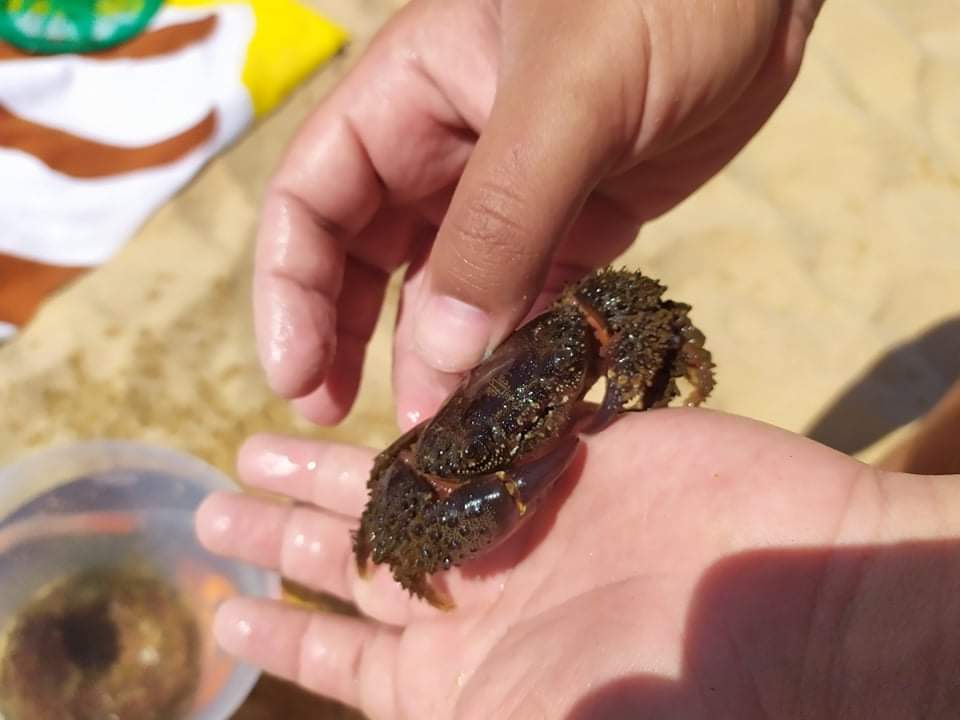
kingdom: Animalia
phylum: Arthropoda
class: Malacostraca
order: Decapoda
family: Eriphiidae
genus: Eriphia
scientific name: Eriphia verrucosa
